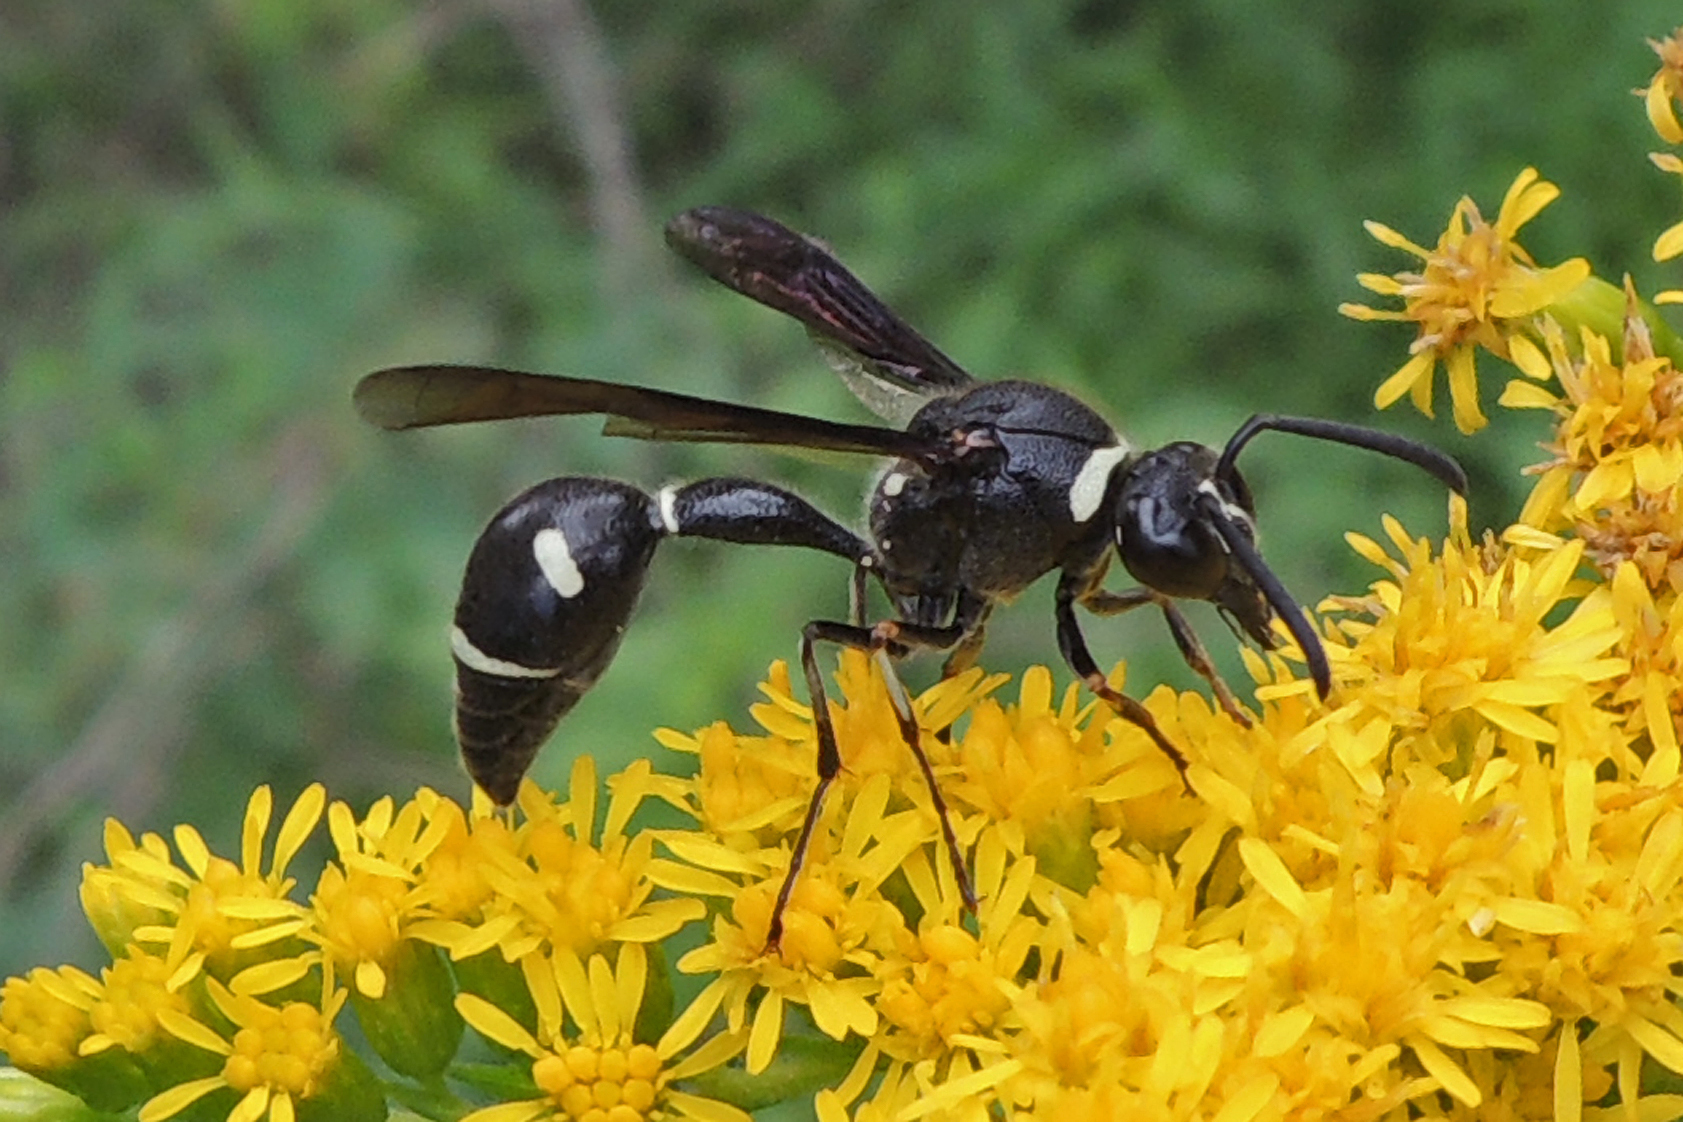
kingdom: Animalia
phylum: Arthropoda
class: Insecta
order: Hymenoptera
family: Vespidae
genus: Eumenes
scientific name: Eumenes fraternus
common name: Fraternal potter wasp
